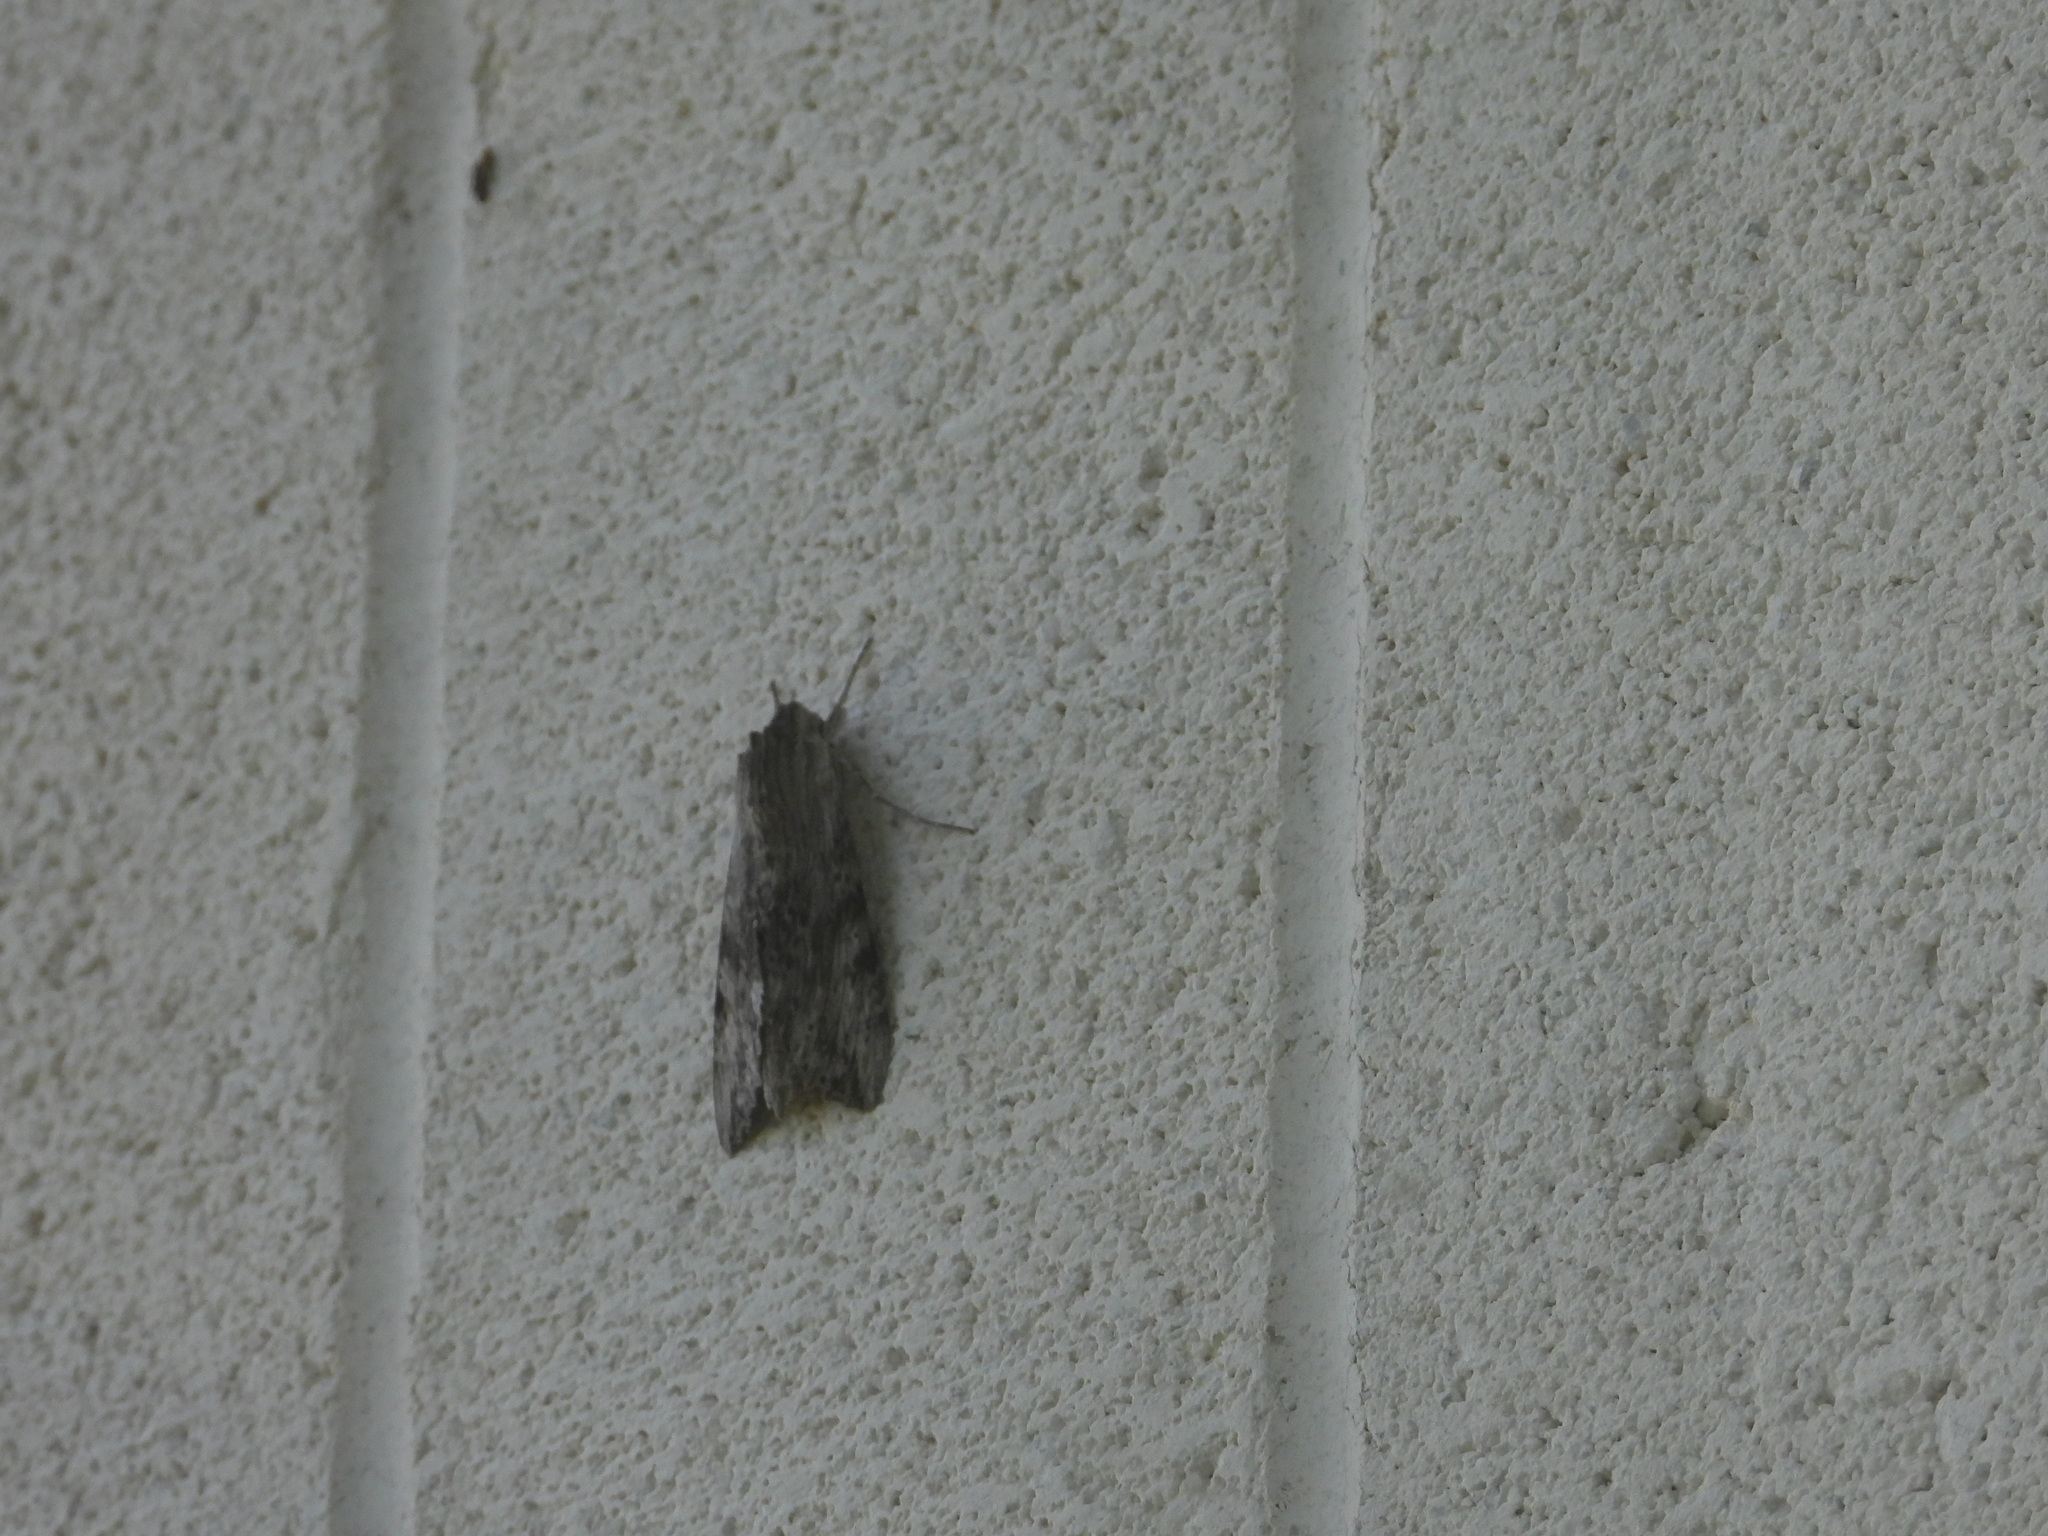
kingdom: Animalia
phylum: Arthropoda
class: Insecta
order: Lepidoptera
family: Sphingidae
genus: Erinnyis
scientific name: Erinnyis obscura
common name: Obscure sphinx
